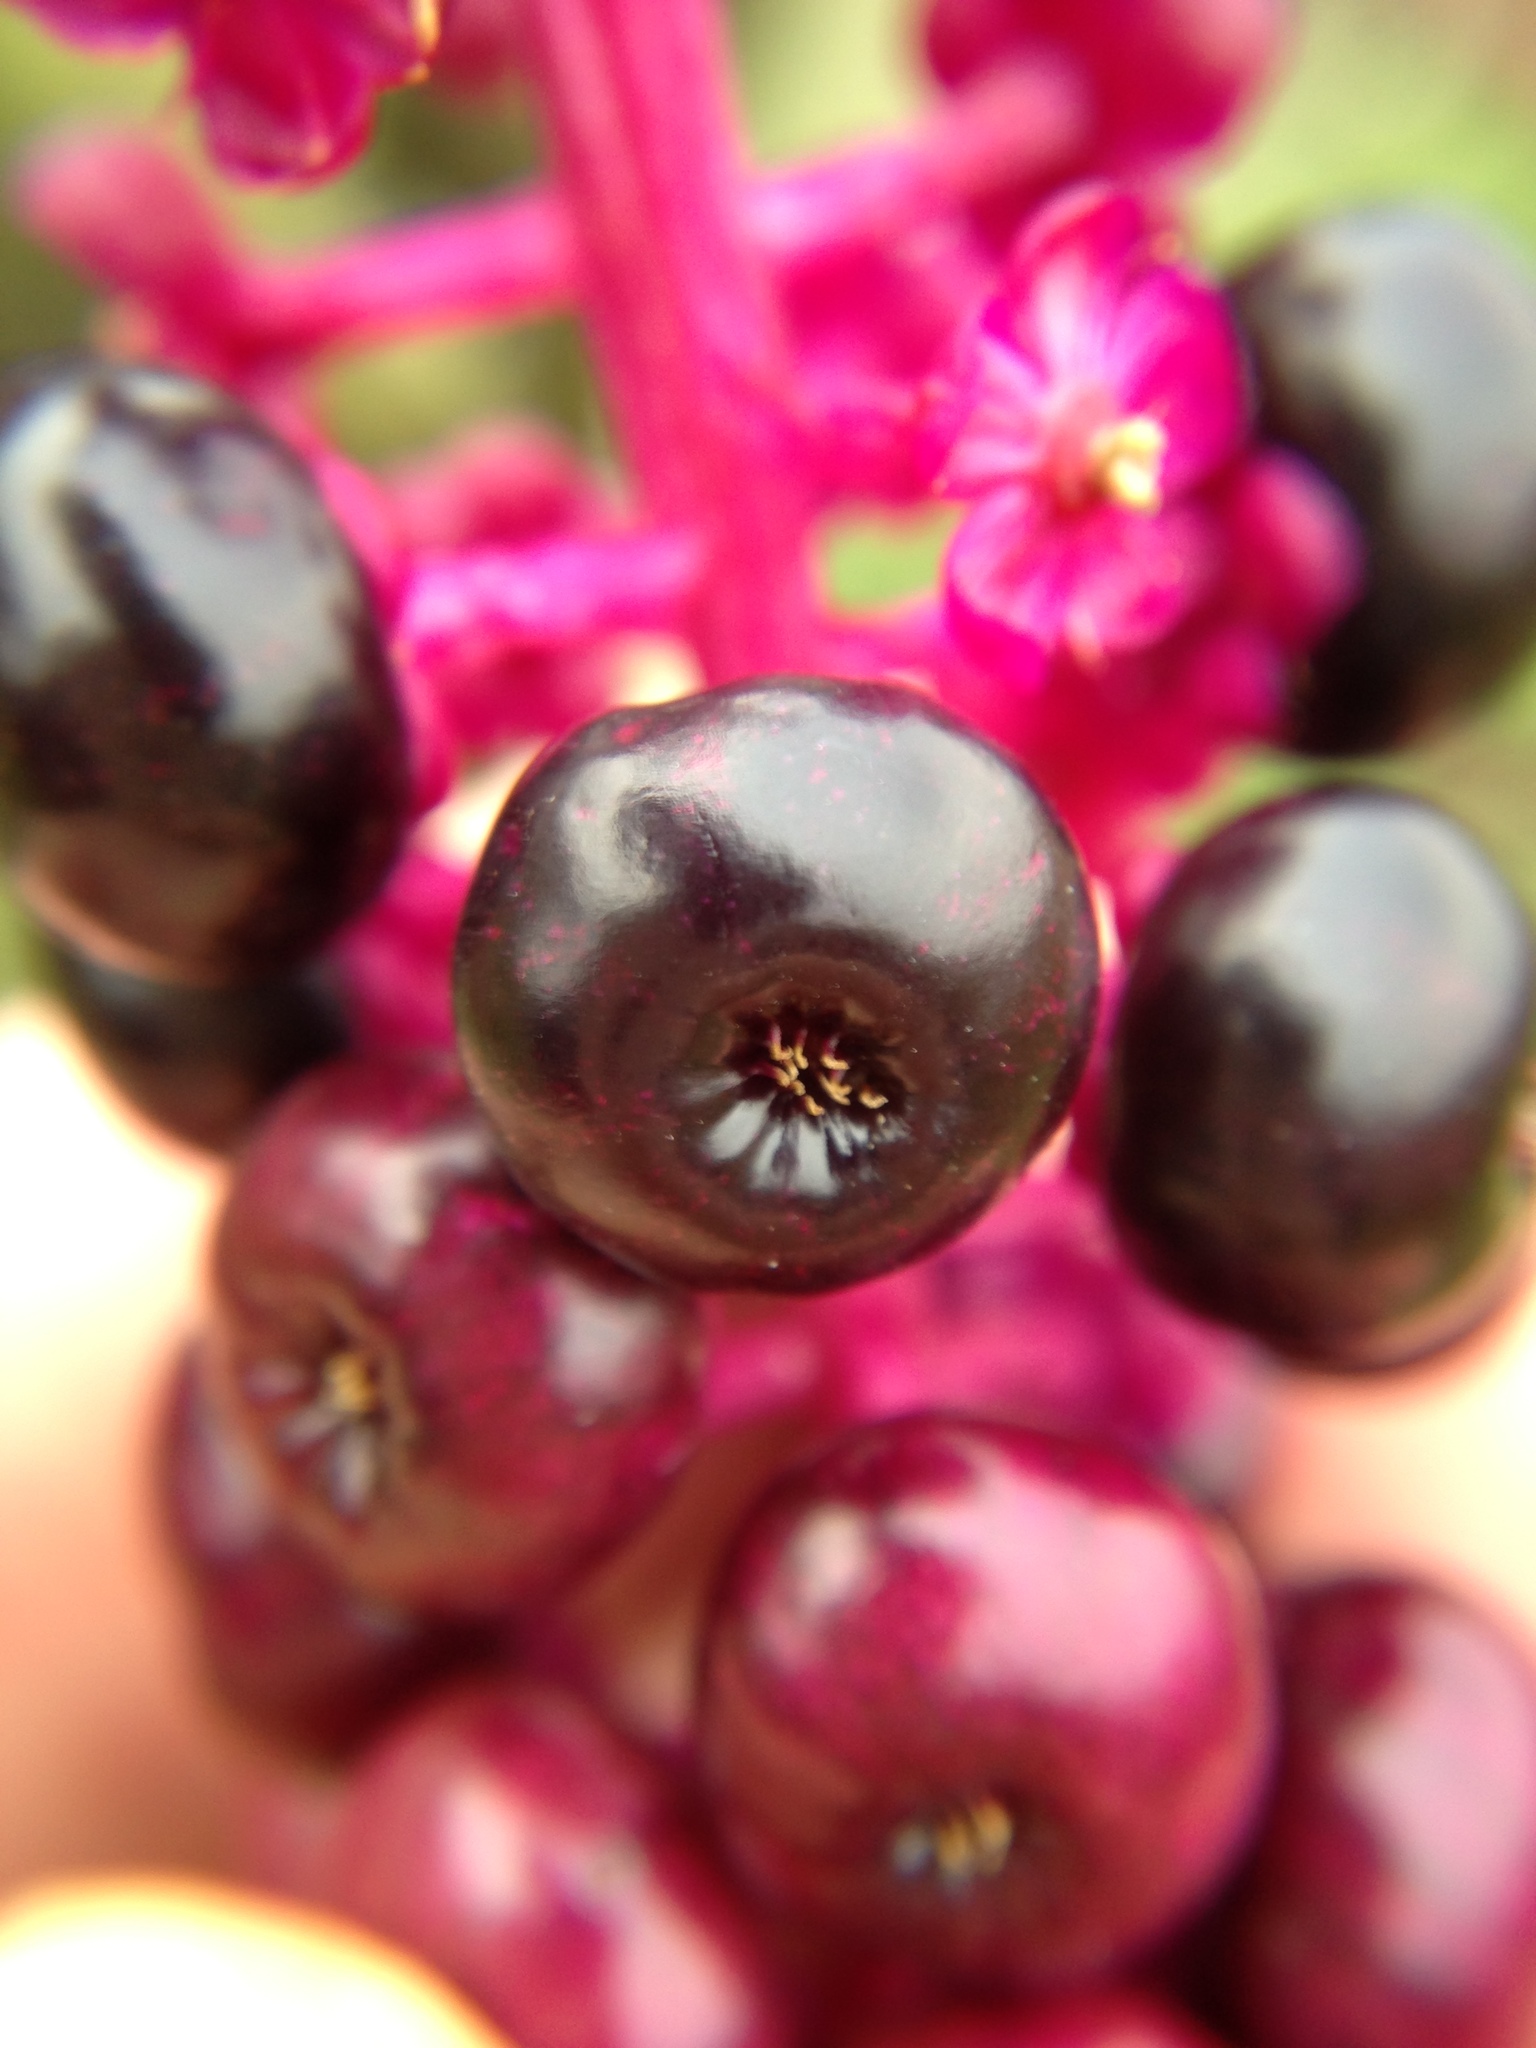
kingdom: Plantae
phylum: Tracheophyta
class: Magnoliopsida
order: Caryophyllales
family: Phytolaccaceae
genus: Phytolacca
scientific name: Phytolacca americana
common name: American pokeweed
